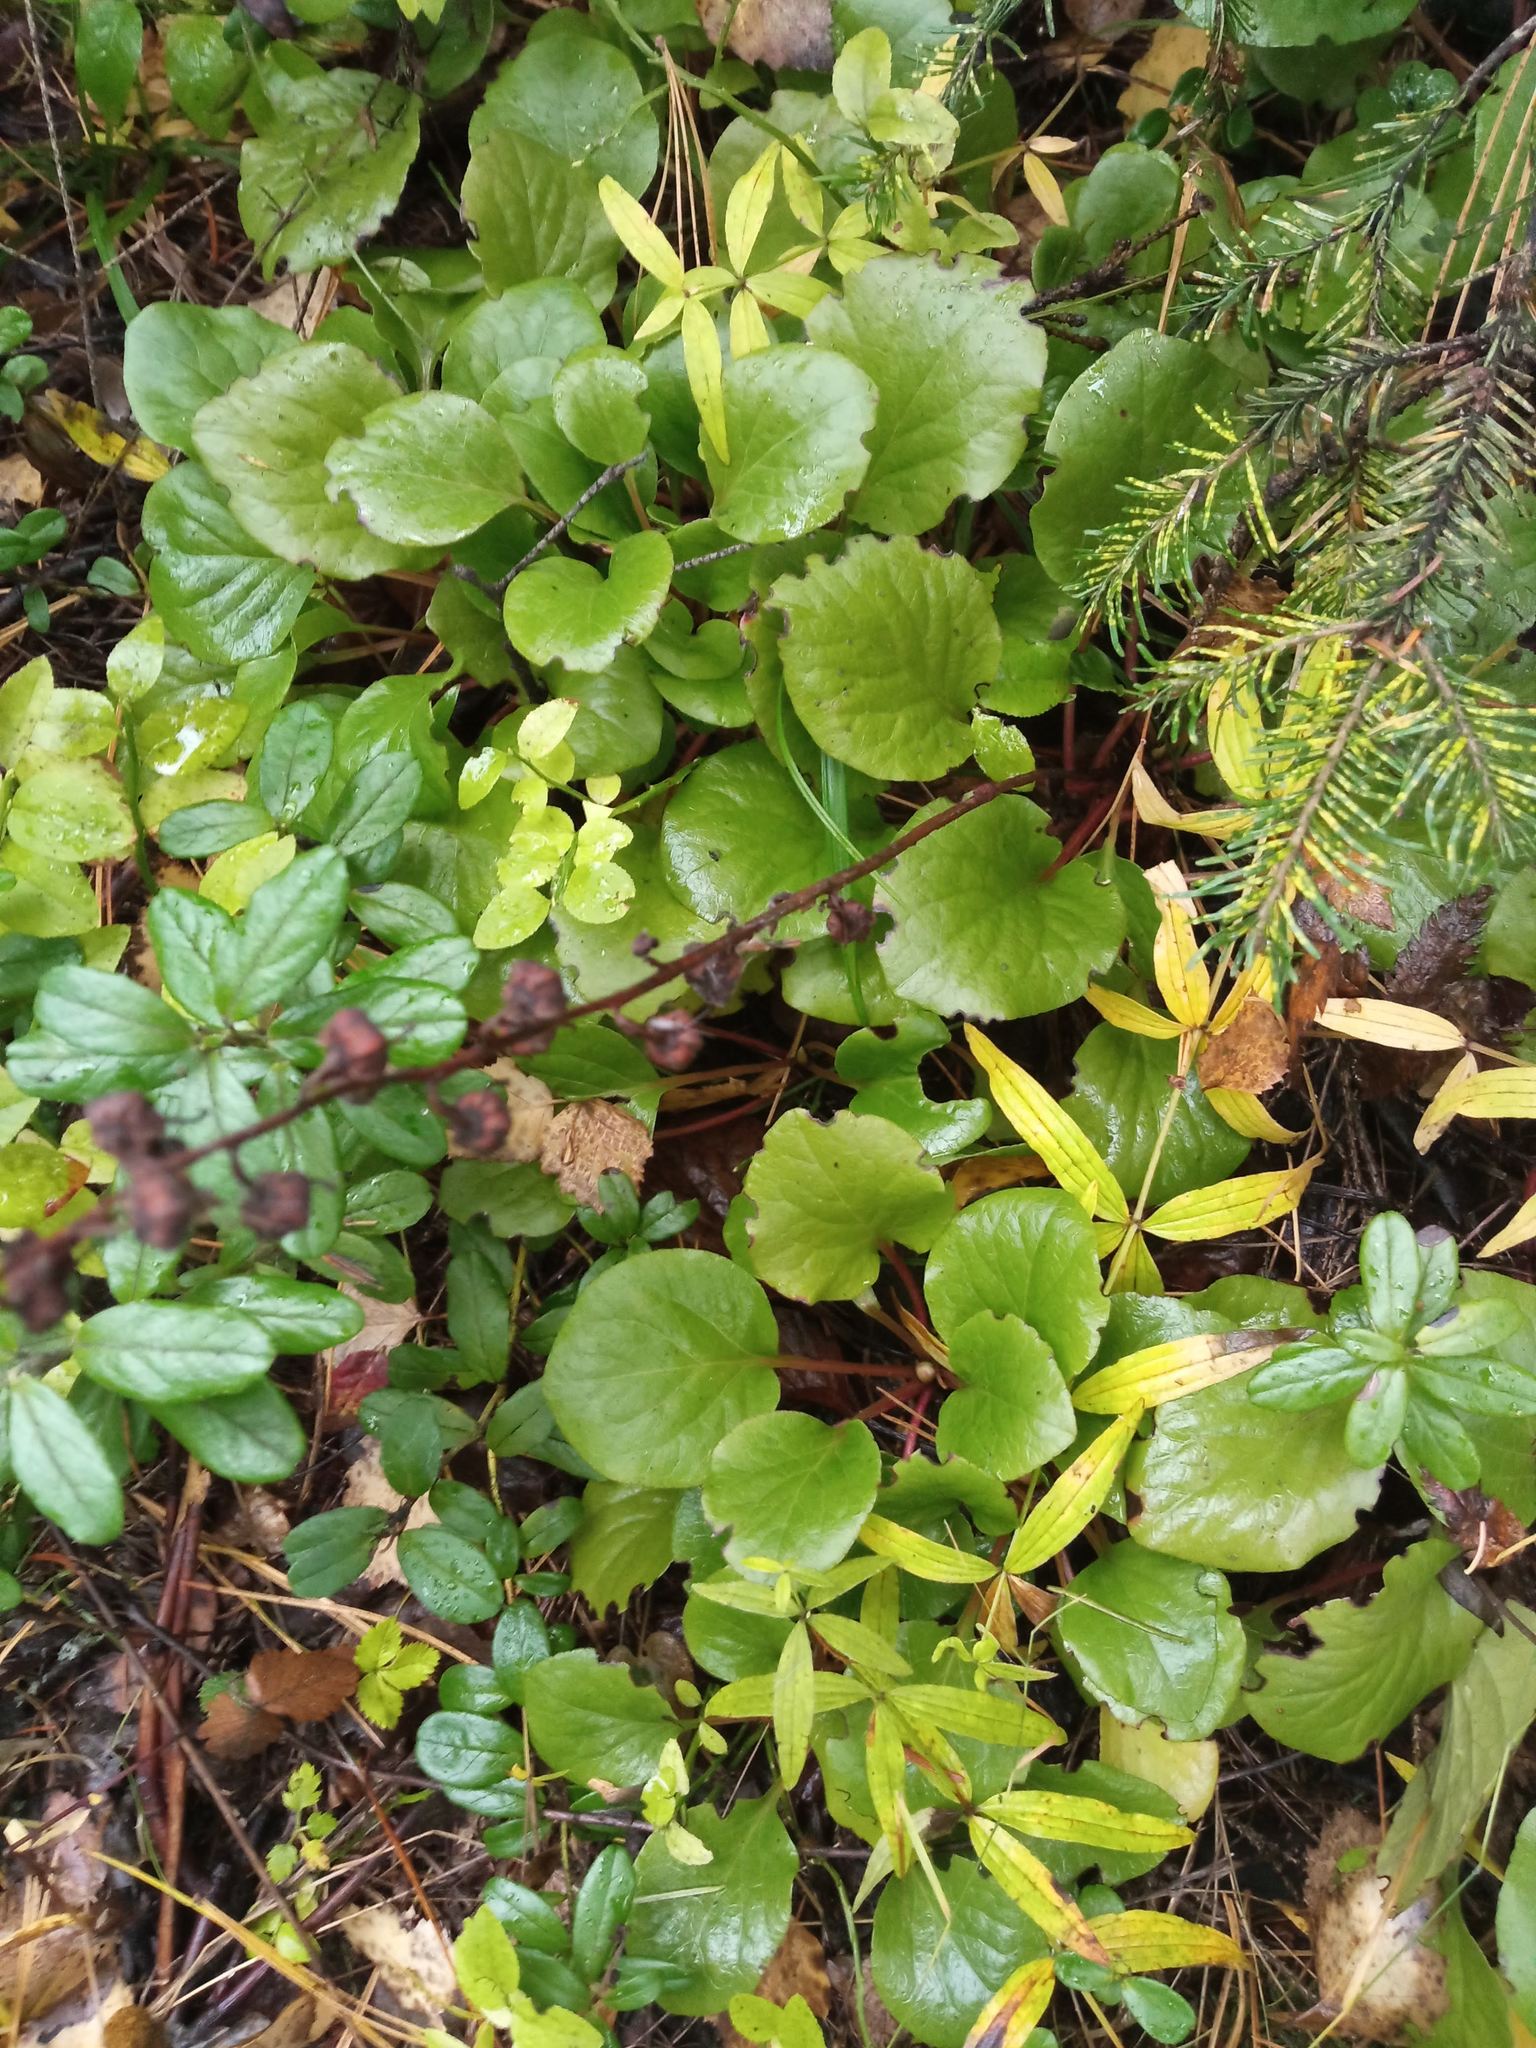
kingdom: Plantae
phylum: Tracheophyta
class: Magnoliopsida
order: Ericales
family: Ericaceae
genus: Pyrola
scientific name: Pyrola asarifolia
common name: Bog wintergreen
